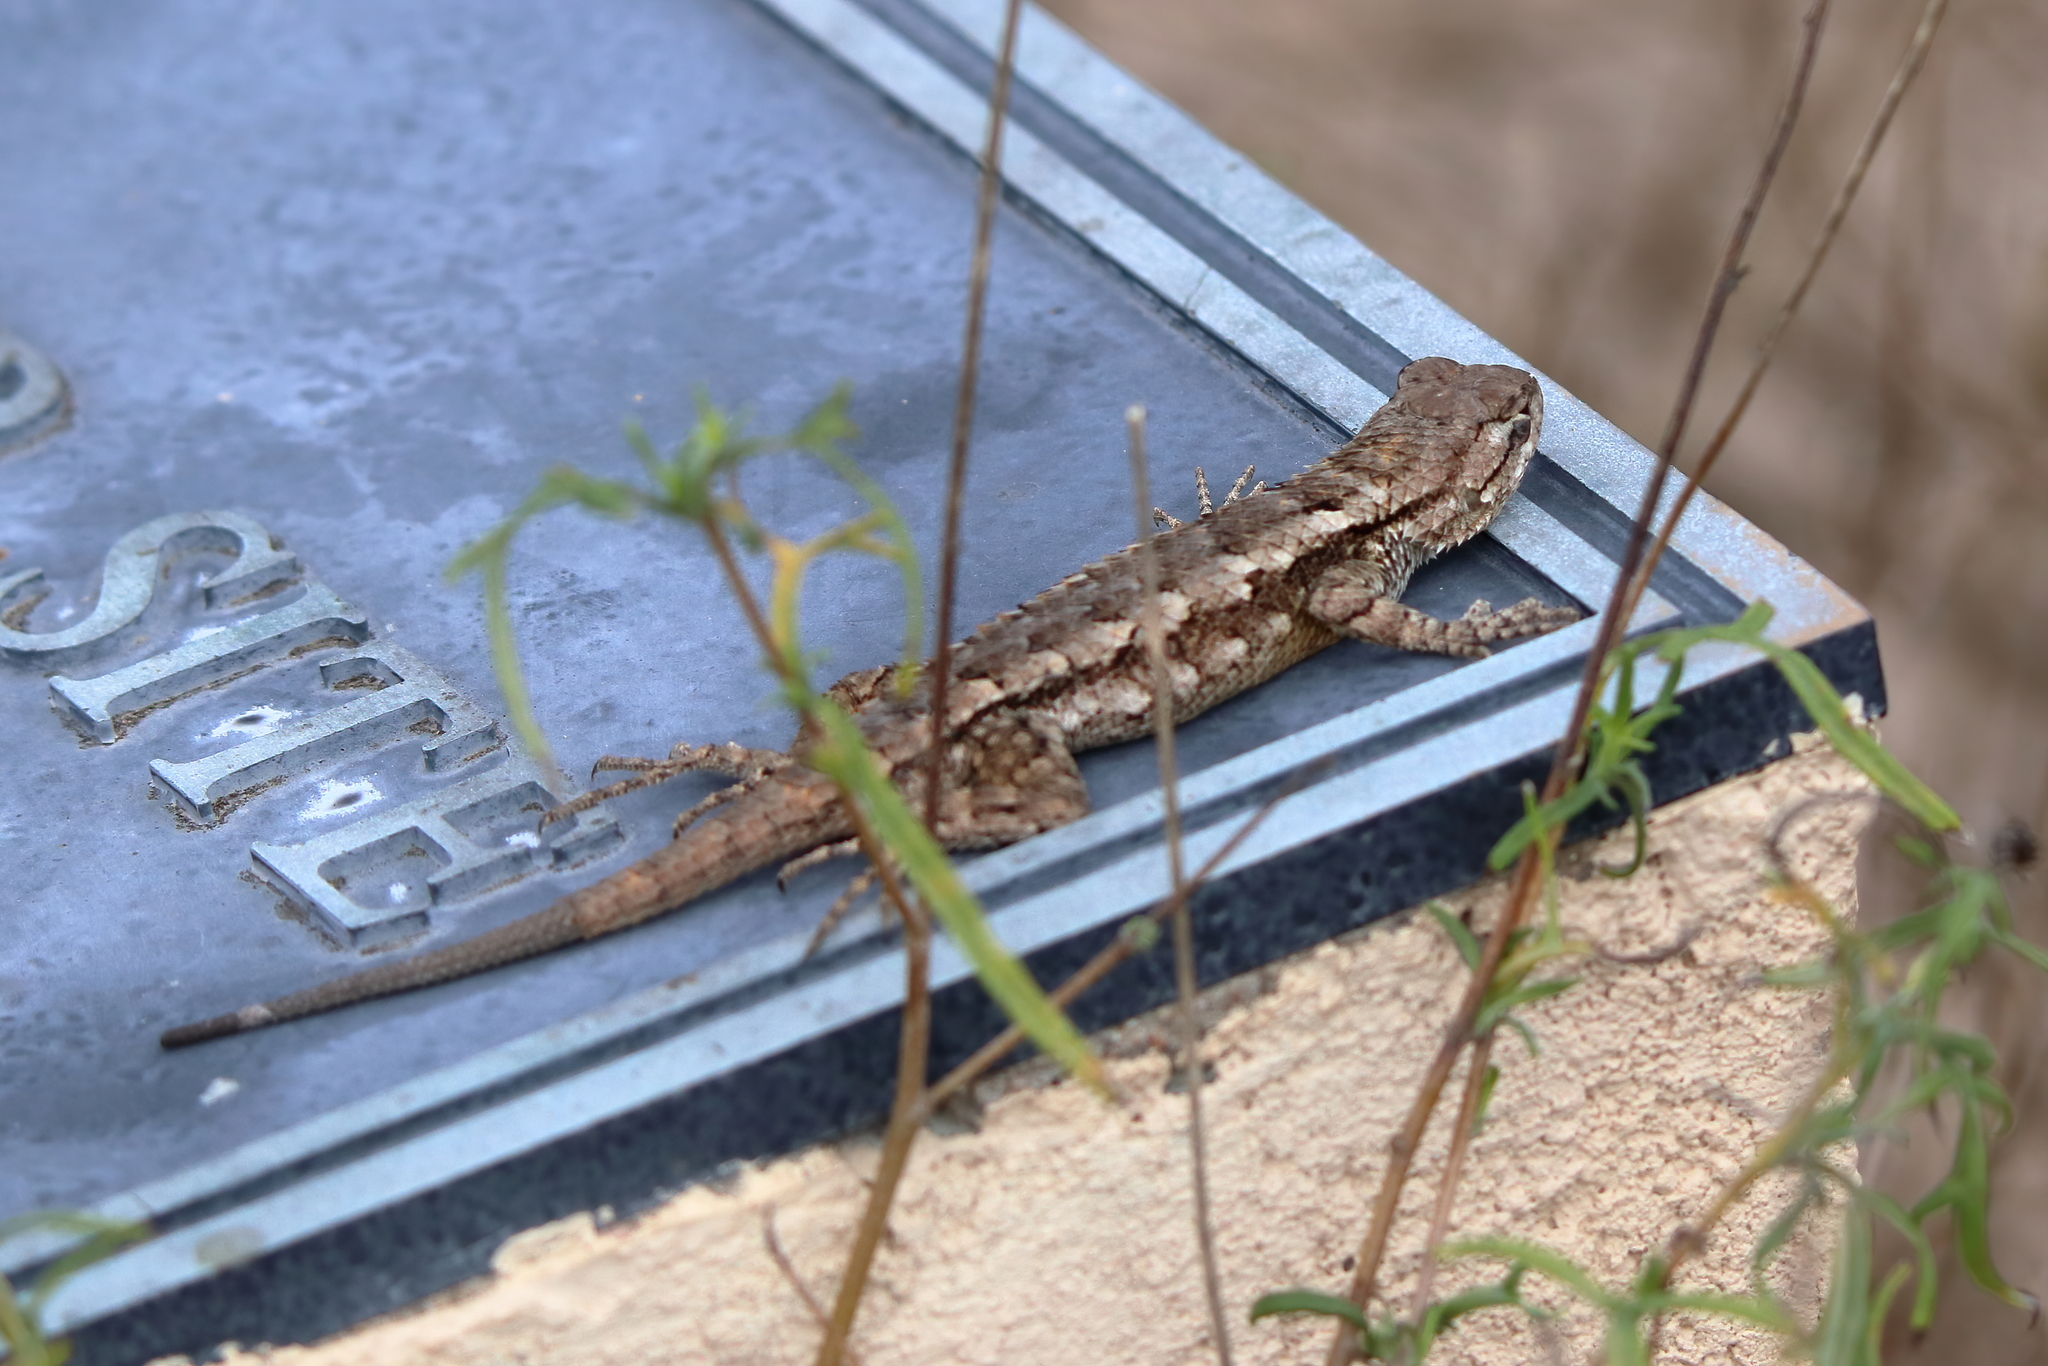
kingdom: Animalia
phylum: Chordata
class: Squamata
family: Phrynosomatidae
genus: Sceloporus
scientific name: Sceloporus olivaceus
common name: Texas spiny lizard
